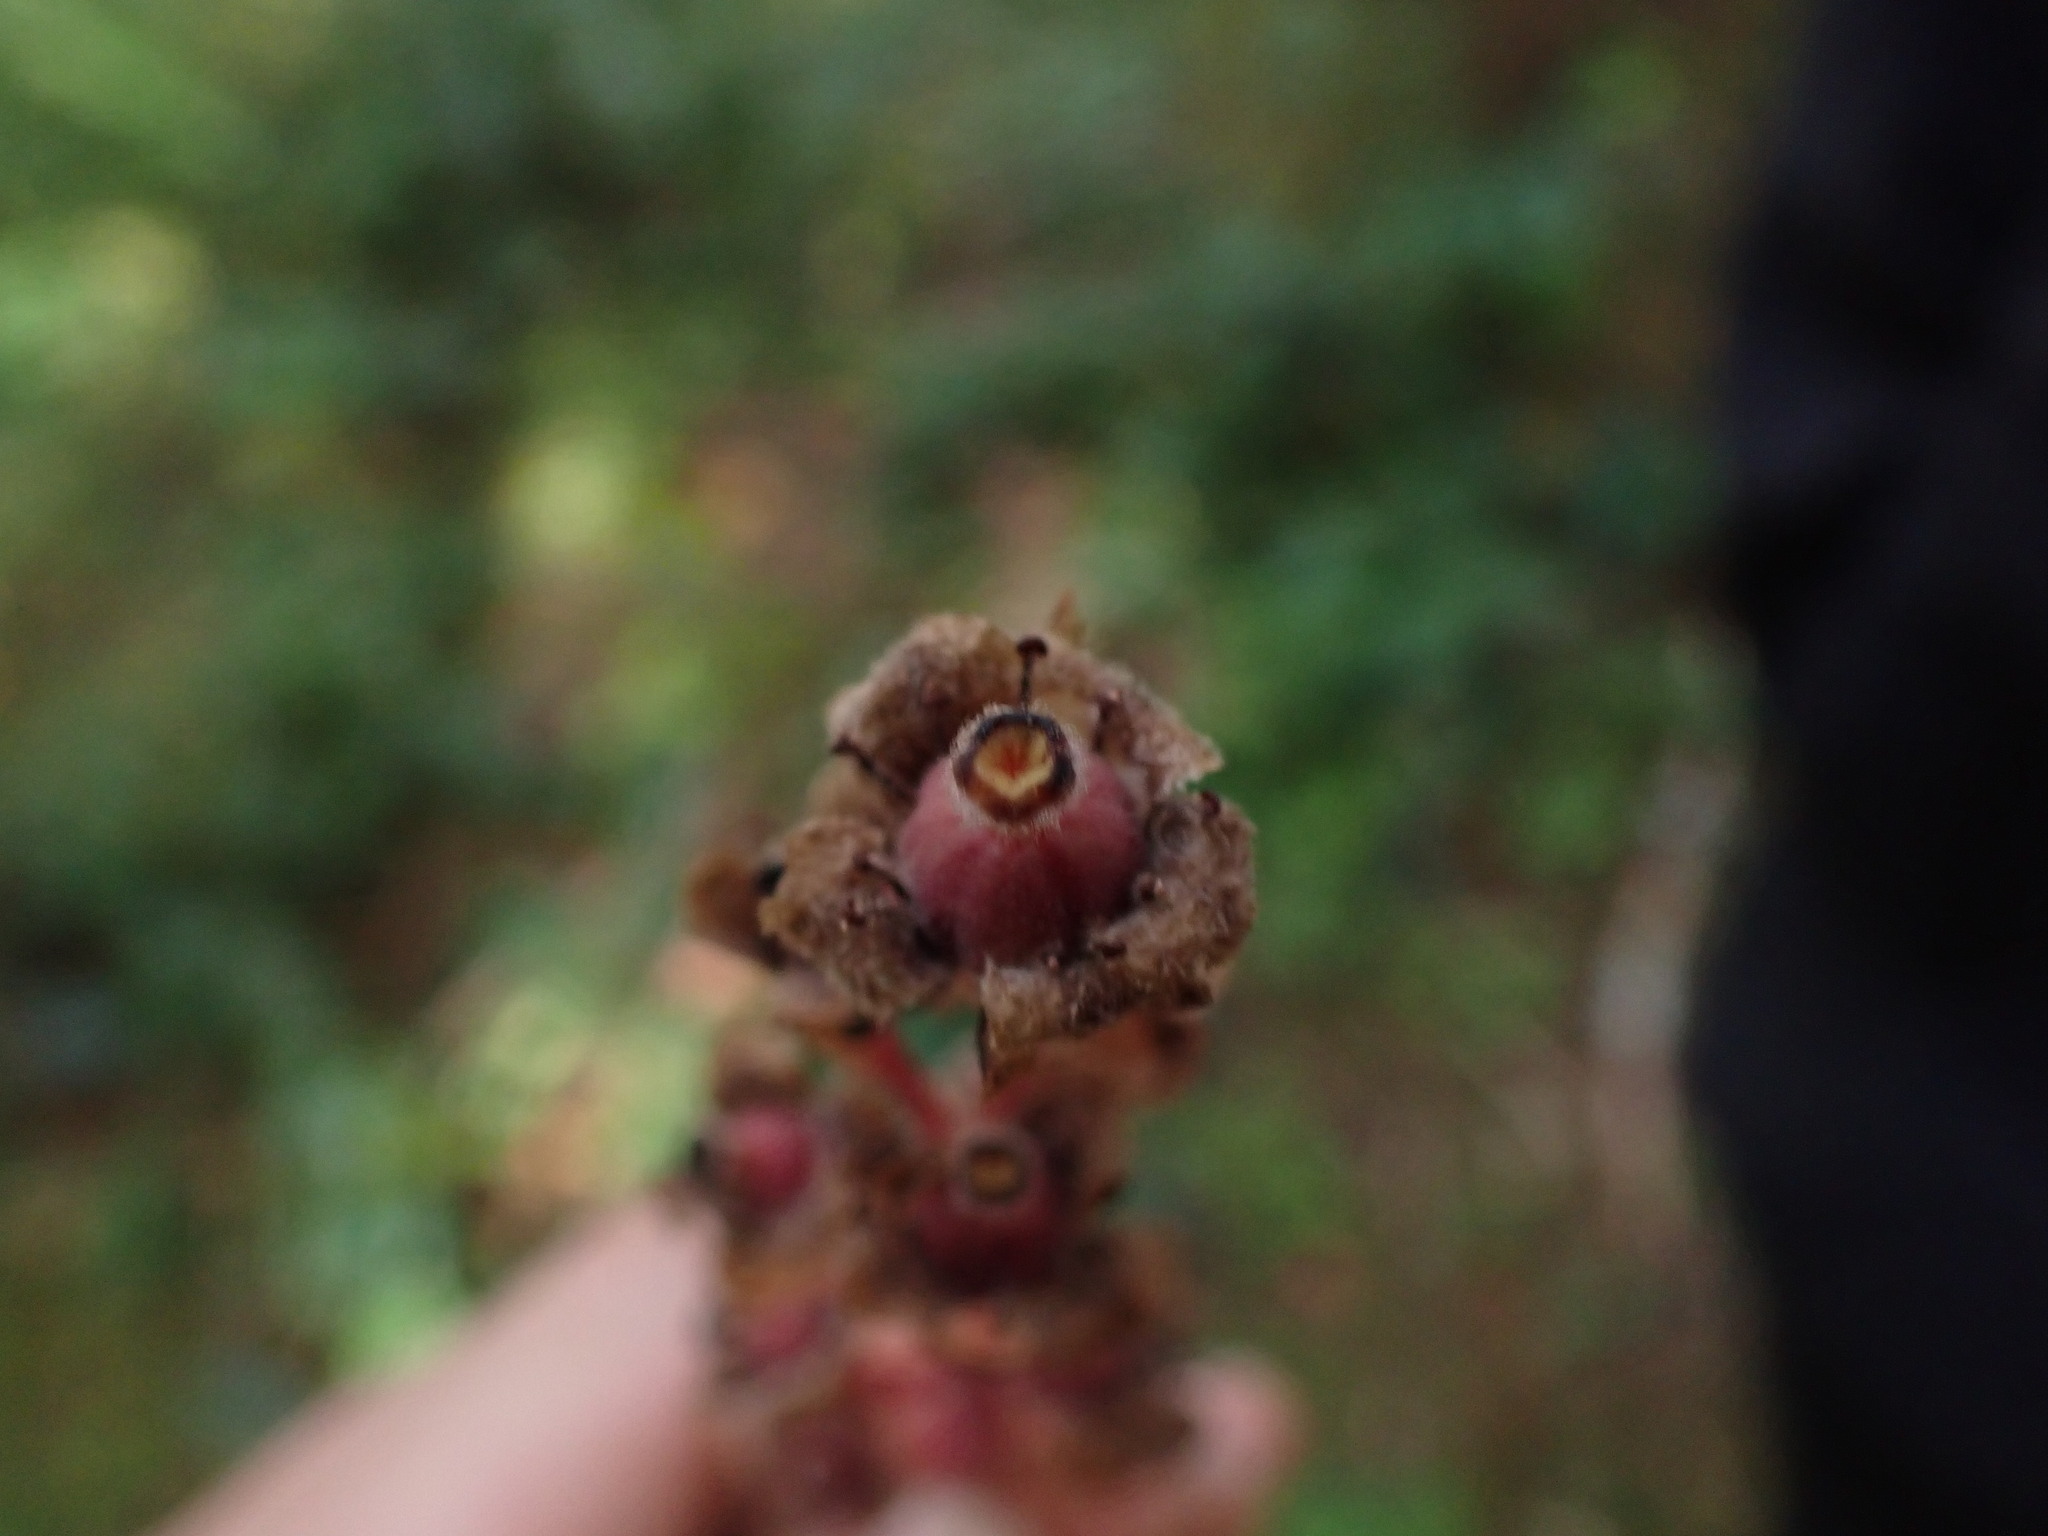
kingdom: Plantae
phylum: Tracheophyta
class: Magnoliopsida
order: Ericales
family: Ericaceae
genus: Hypopitys
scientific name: Hypopitys monotropa
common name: Yellow bird's-nest
